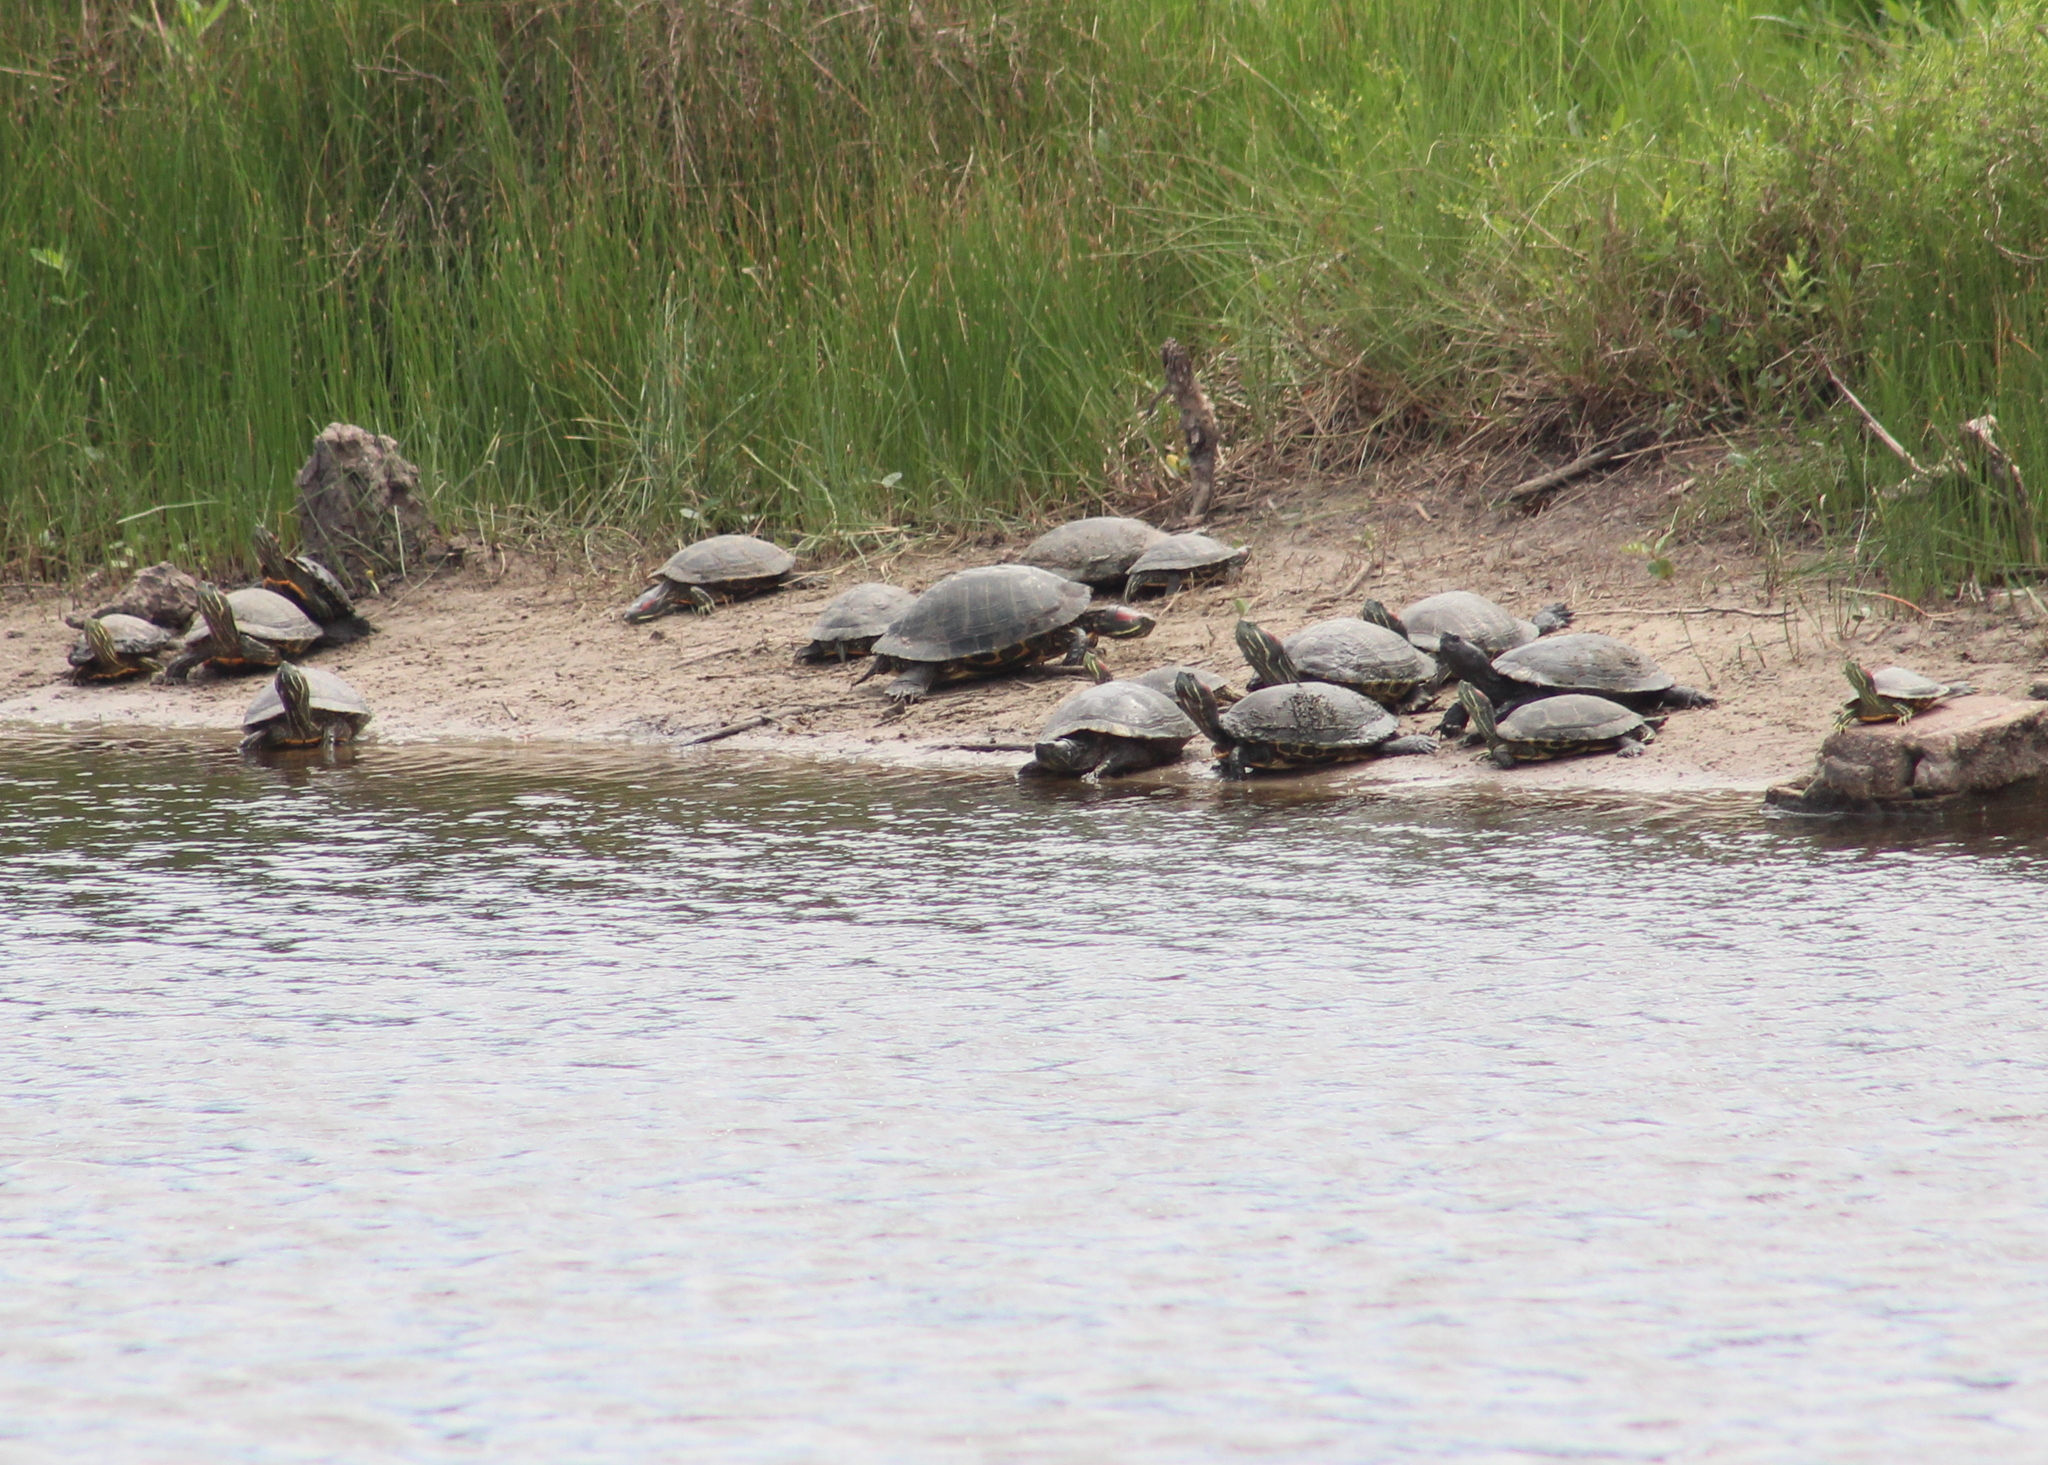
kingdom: Animalia
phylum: Chordata
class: Testudines
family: Emydidae
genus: Trachemys
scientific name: Trachemys scripta
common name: Slider
